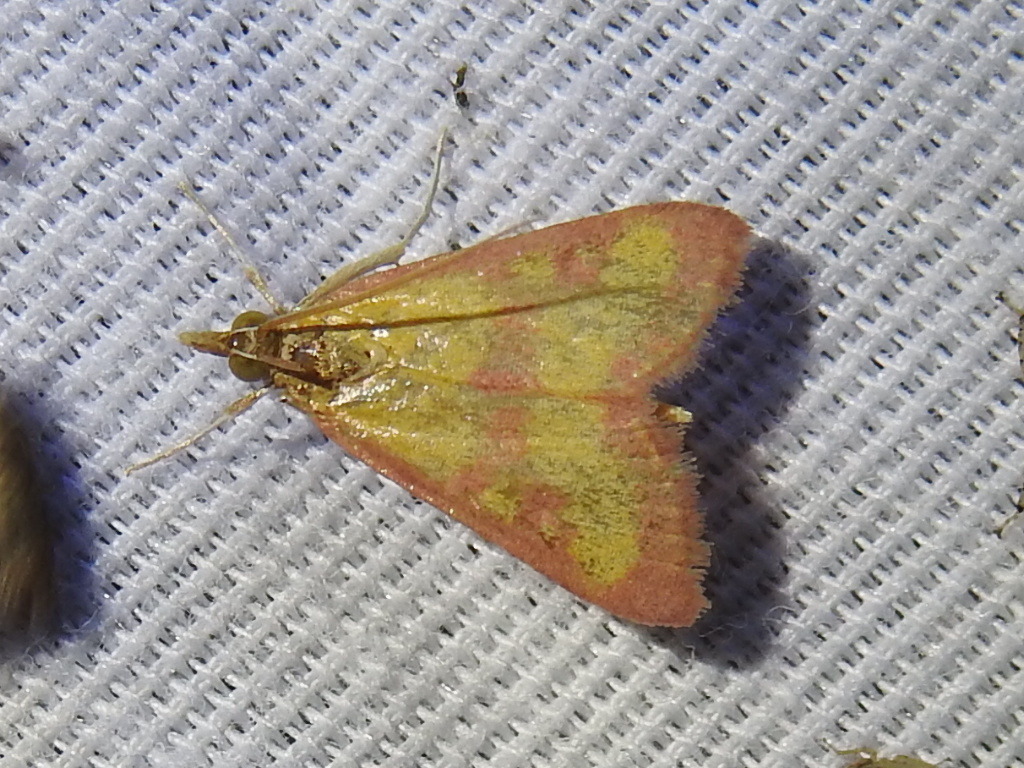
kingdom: Animalia
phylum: Arthropoda
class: Insecta
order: Lepidoptera
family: Crambidae
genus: Pyrausta
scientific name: Pyrausta laticlavia
